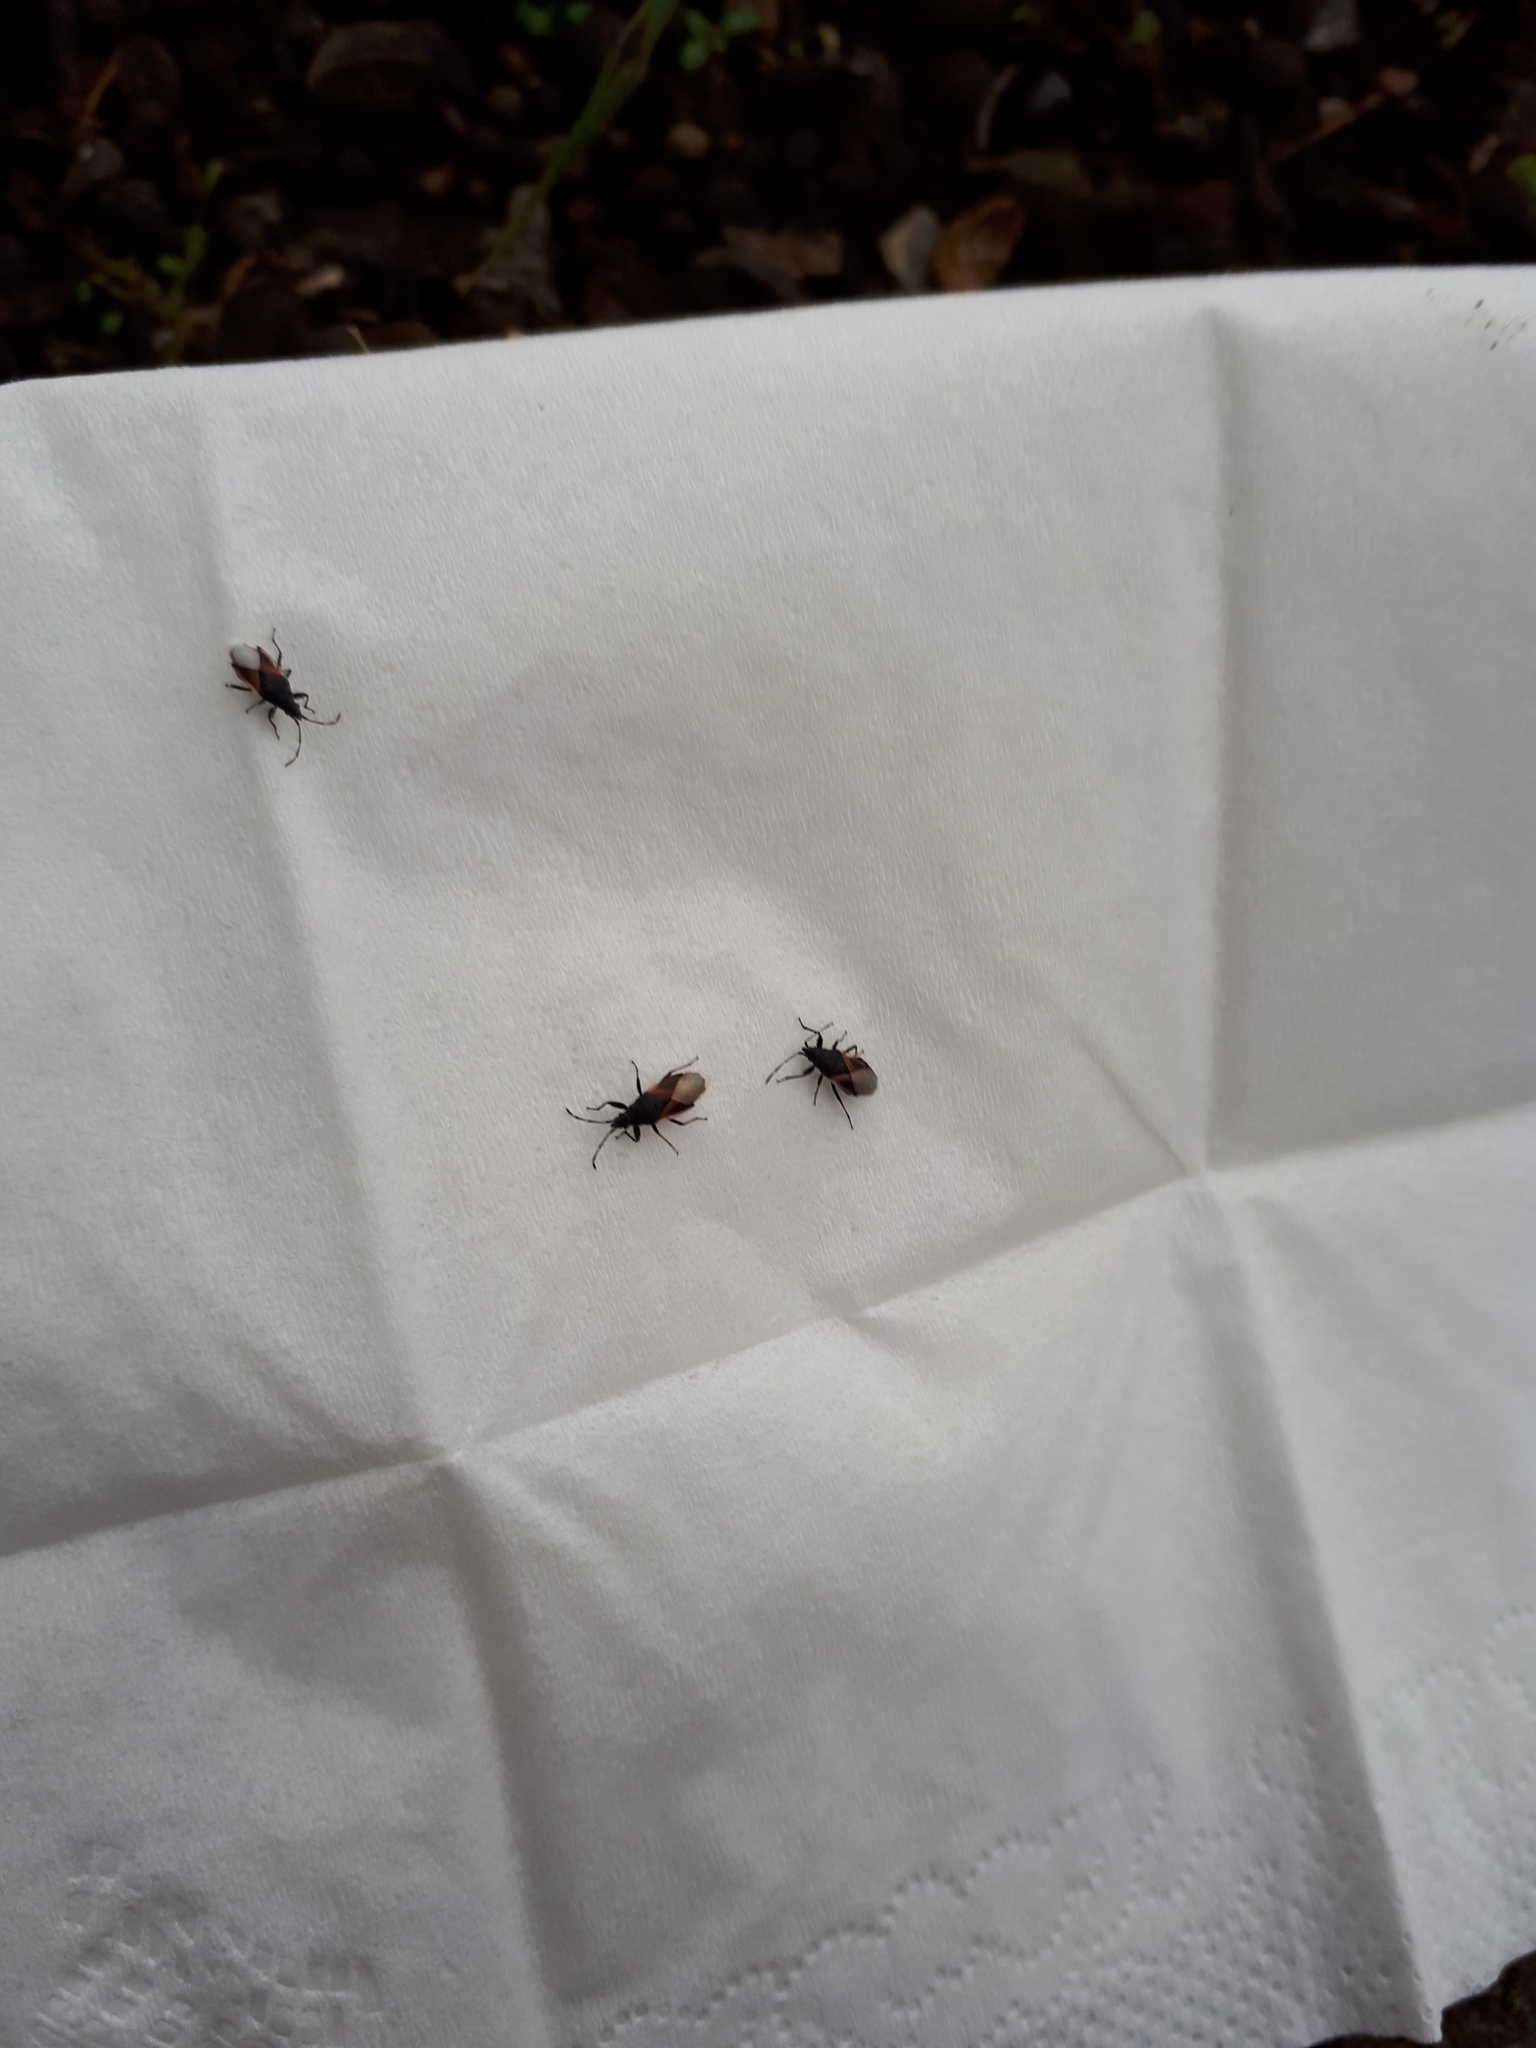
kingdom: Animalia
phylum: Arthropoda
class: Insecta
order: Hemiptera
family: Oxycarenidae
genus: Oxycarenus
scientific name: Oxycarenus lavaterae
